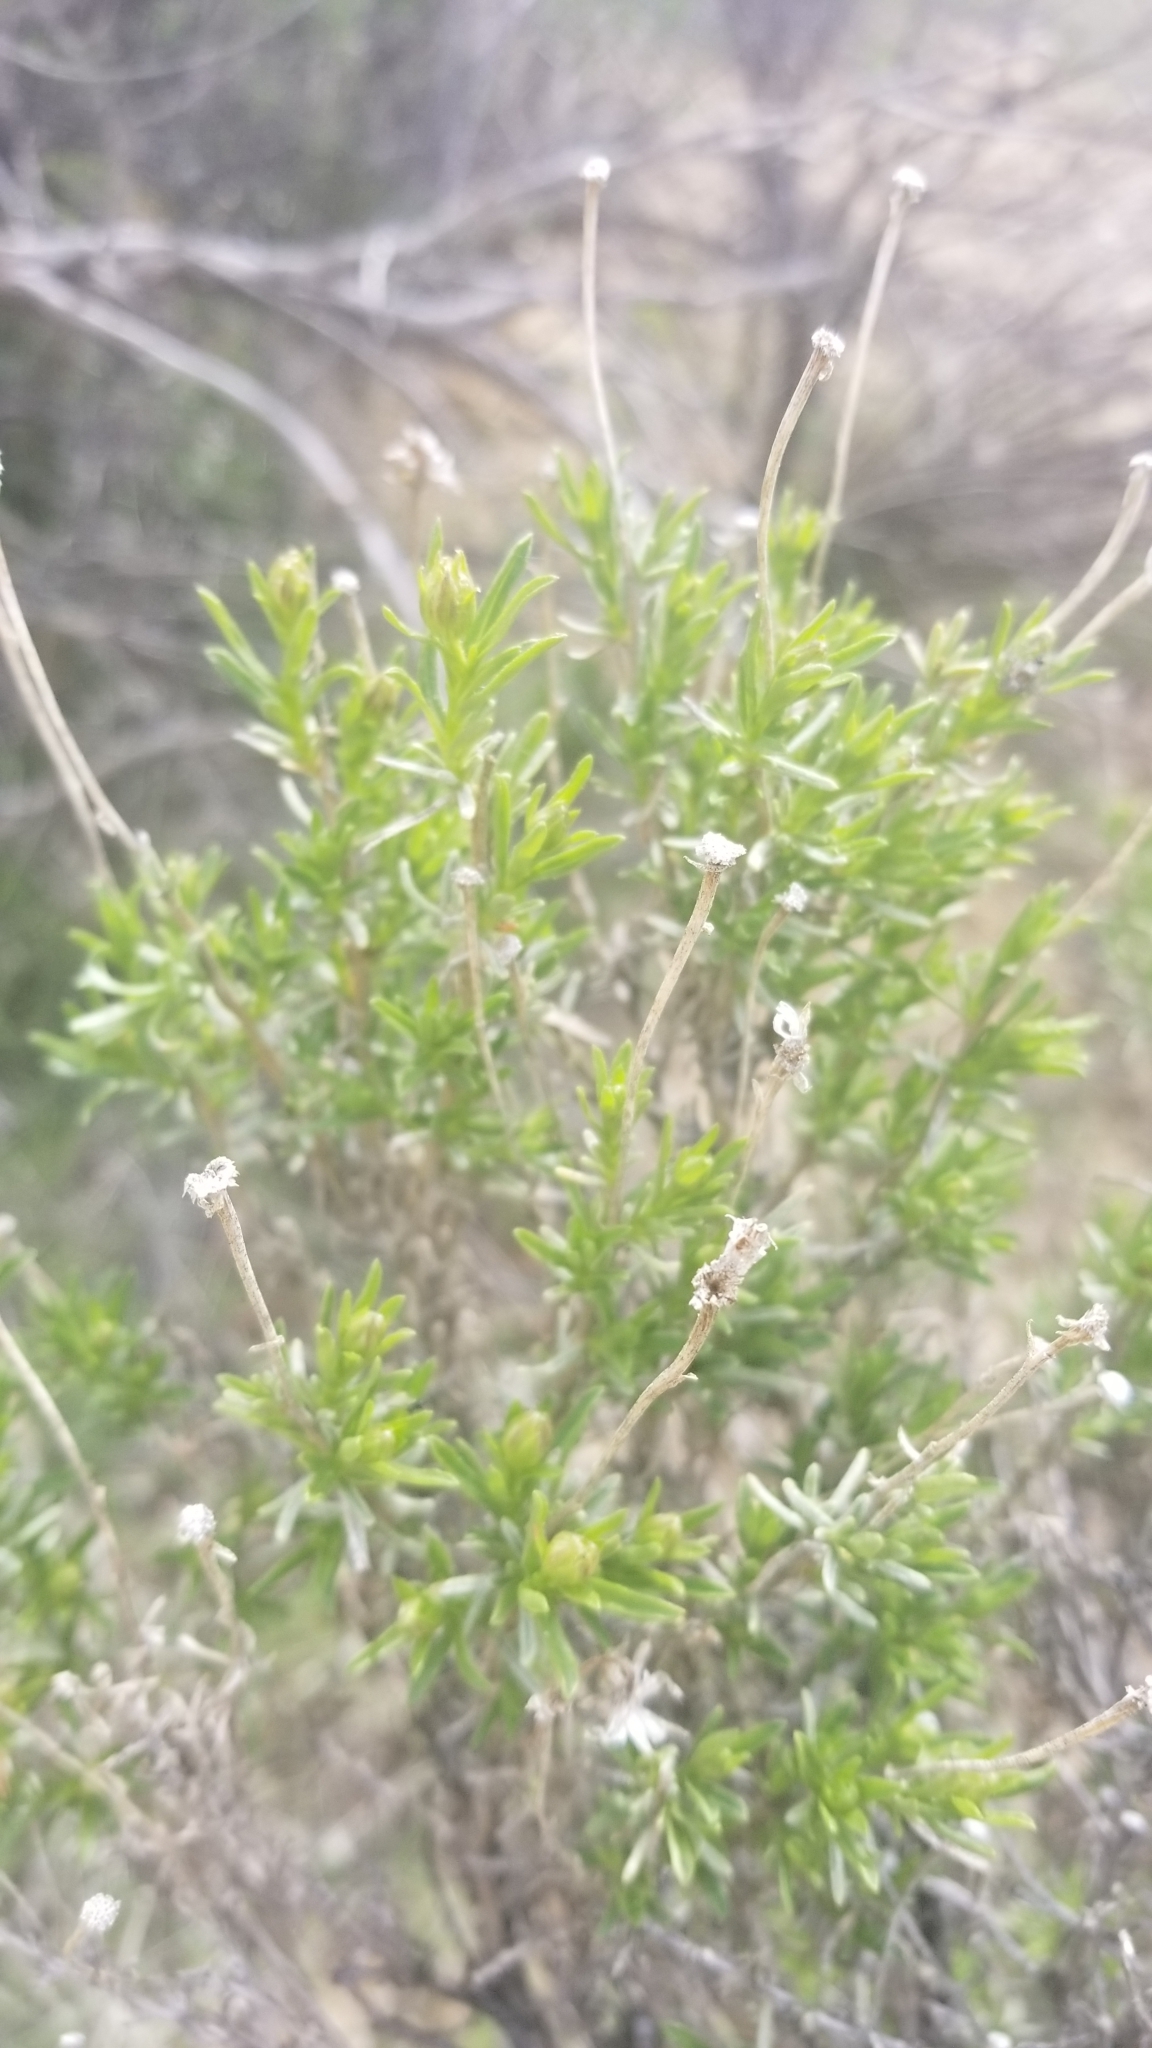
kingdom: Plantae
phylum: Tracheophyta
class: Magnoliopsida
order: Asterales
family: Asteraceae
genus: Ericameria
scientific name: Ericameria linearifolia
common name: Interior goldenbush
